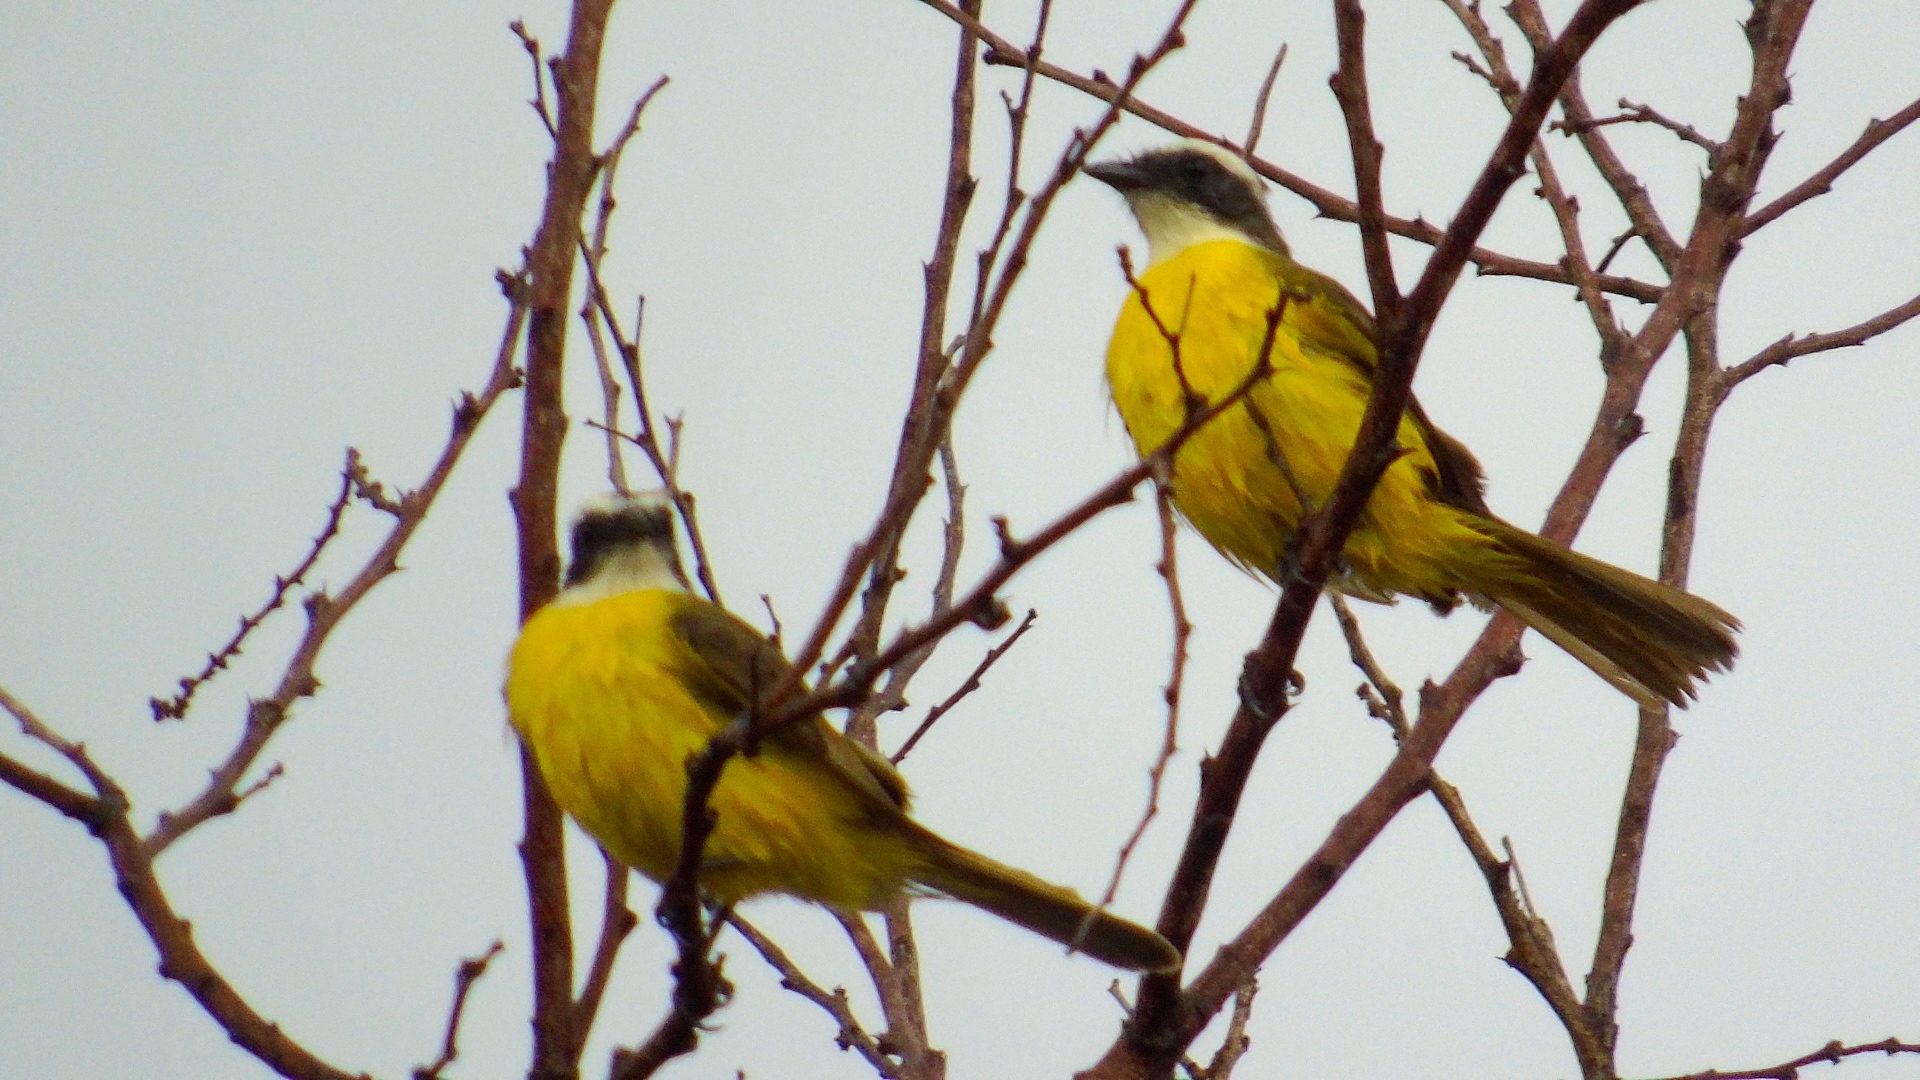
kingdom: Animalia
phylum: Chordata
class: Aves
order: Passeriformes
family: Tyrannidae
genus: Myiozetetes
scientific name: Myiozetetes similis
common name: Social flycatcher
